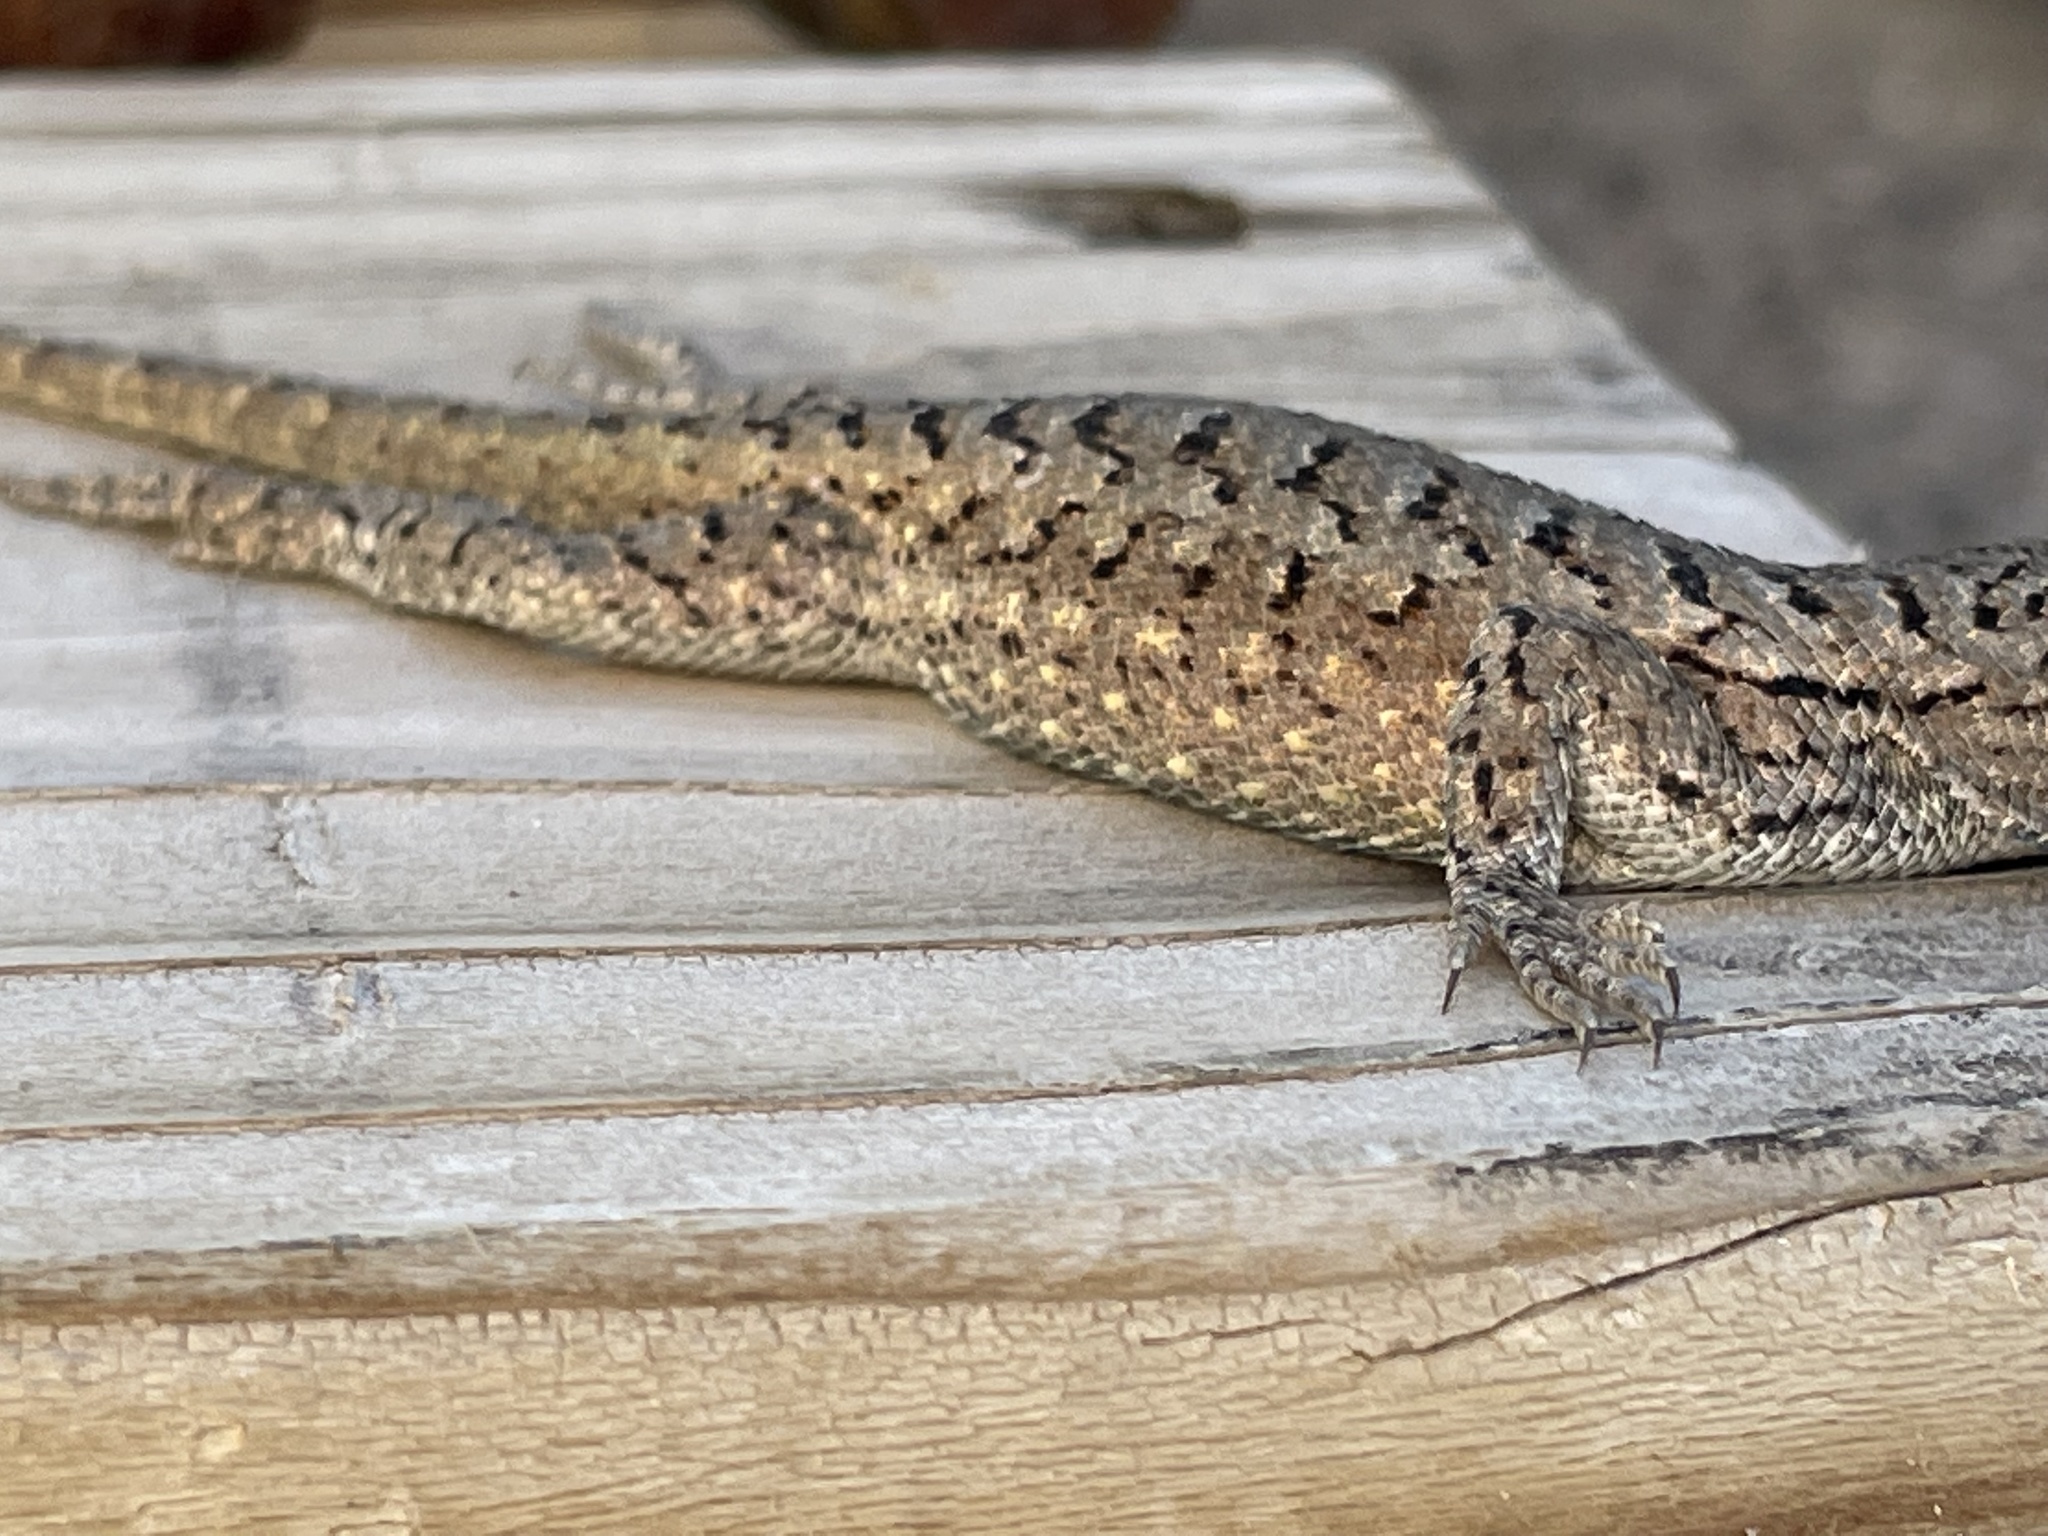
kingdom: Animalia
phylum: Chordata
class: Squamata
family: Phrynosomatidae
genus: Sceloporus
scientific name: Sceloporus tristichus
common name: Plateau fence lizard
